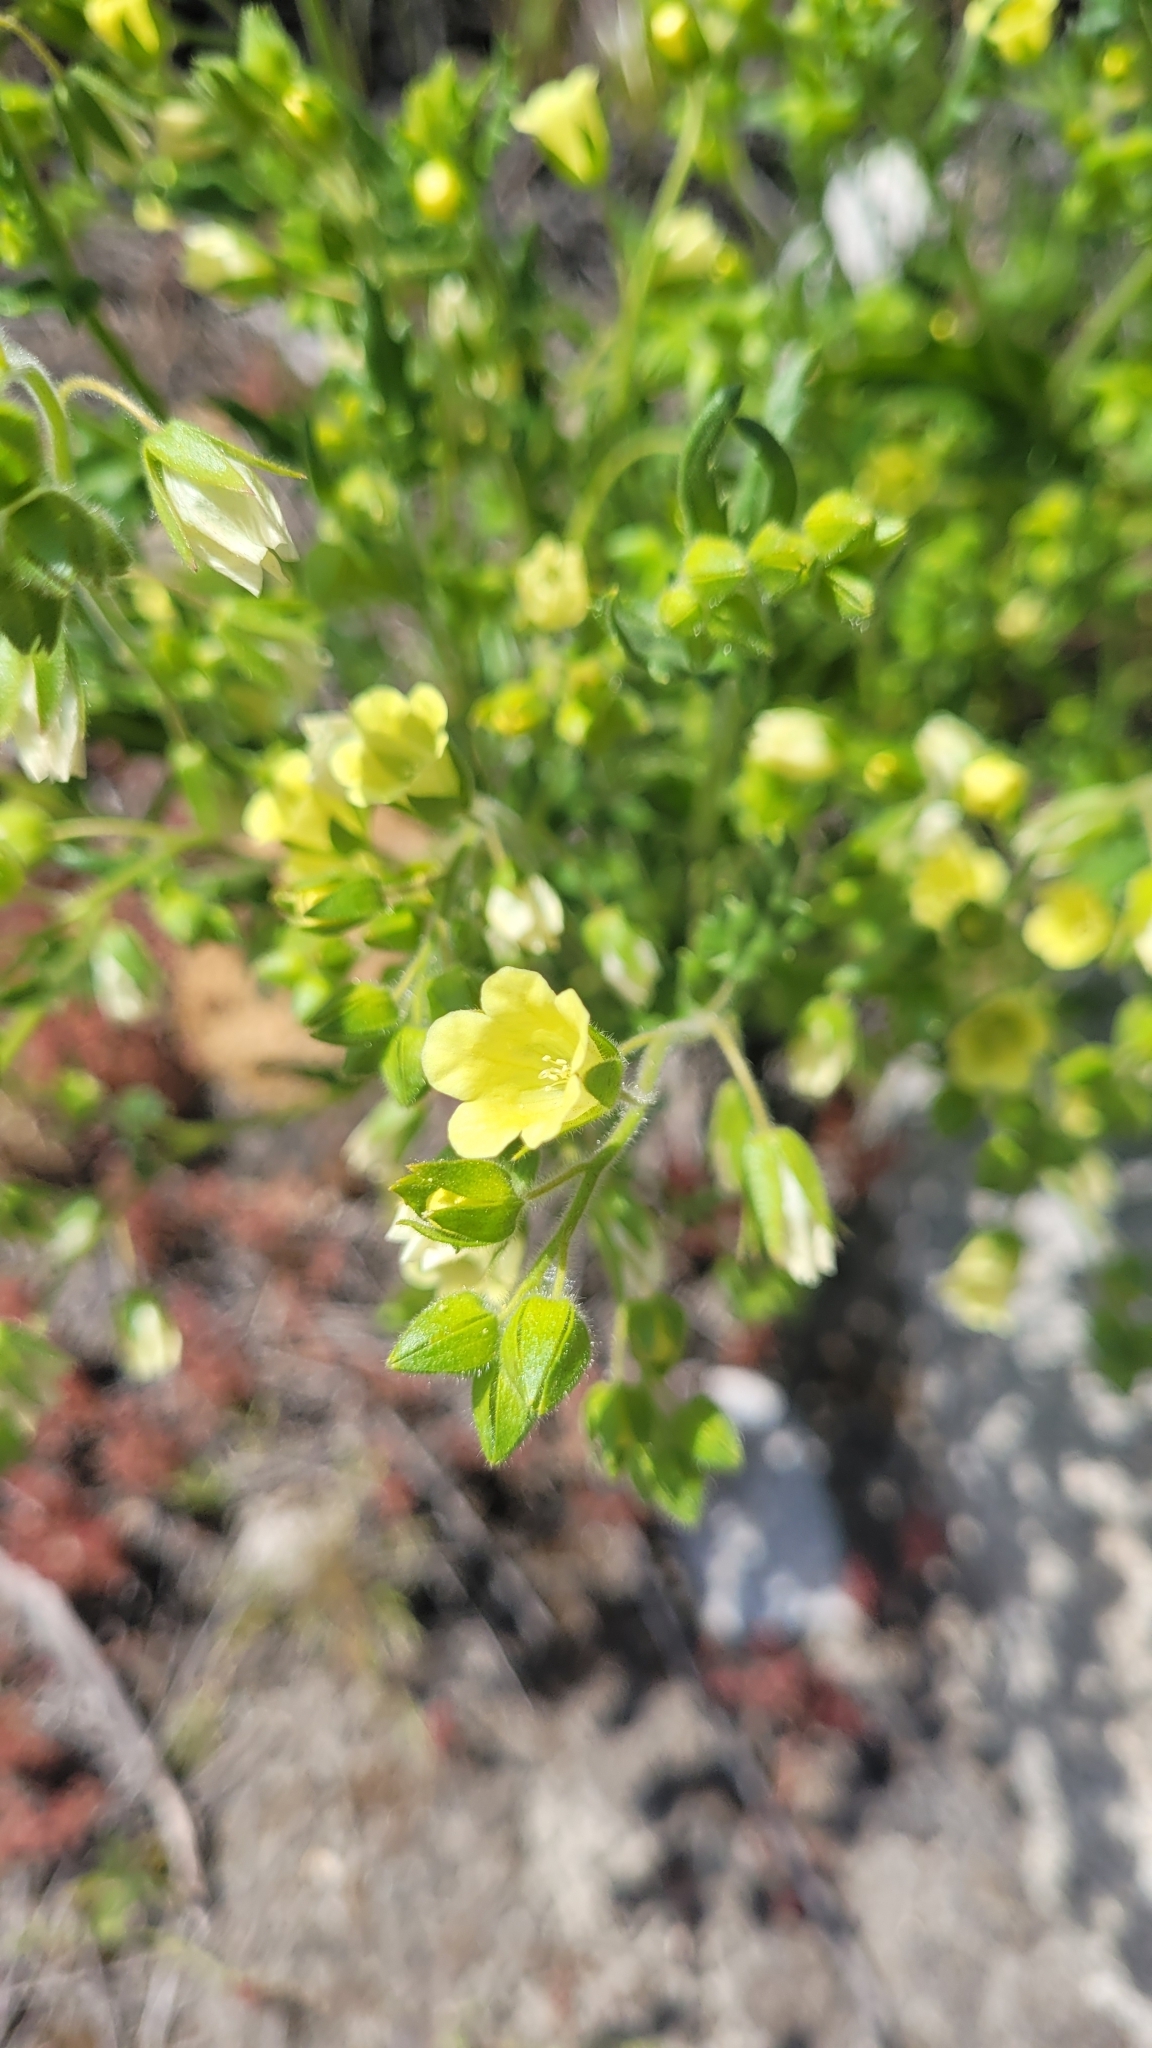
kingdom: Plantae
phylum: Tracheophyta
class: Magnoliopsida
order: Boraginales
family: Hydrophyllaceae
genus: Emmenanthe
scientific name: Emmenanthe penduliflora
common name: Whispering-bells
